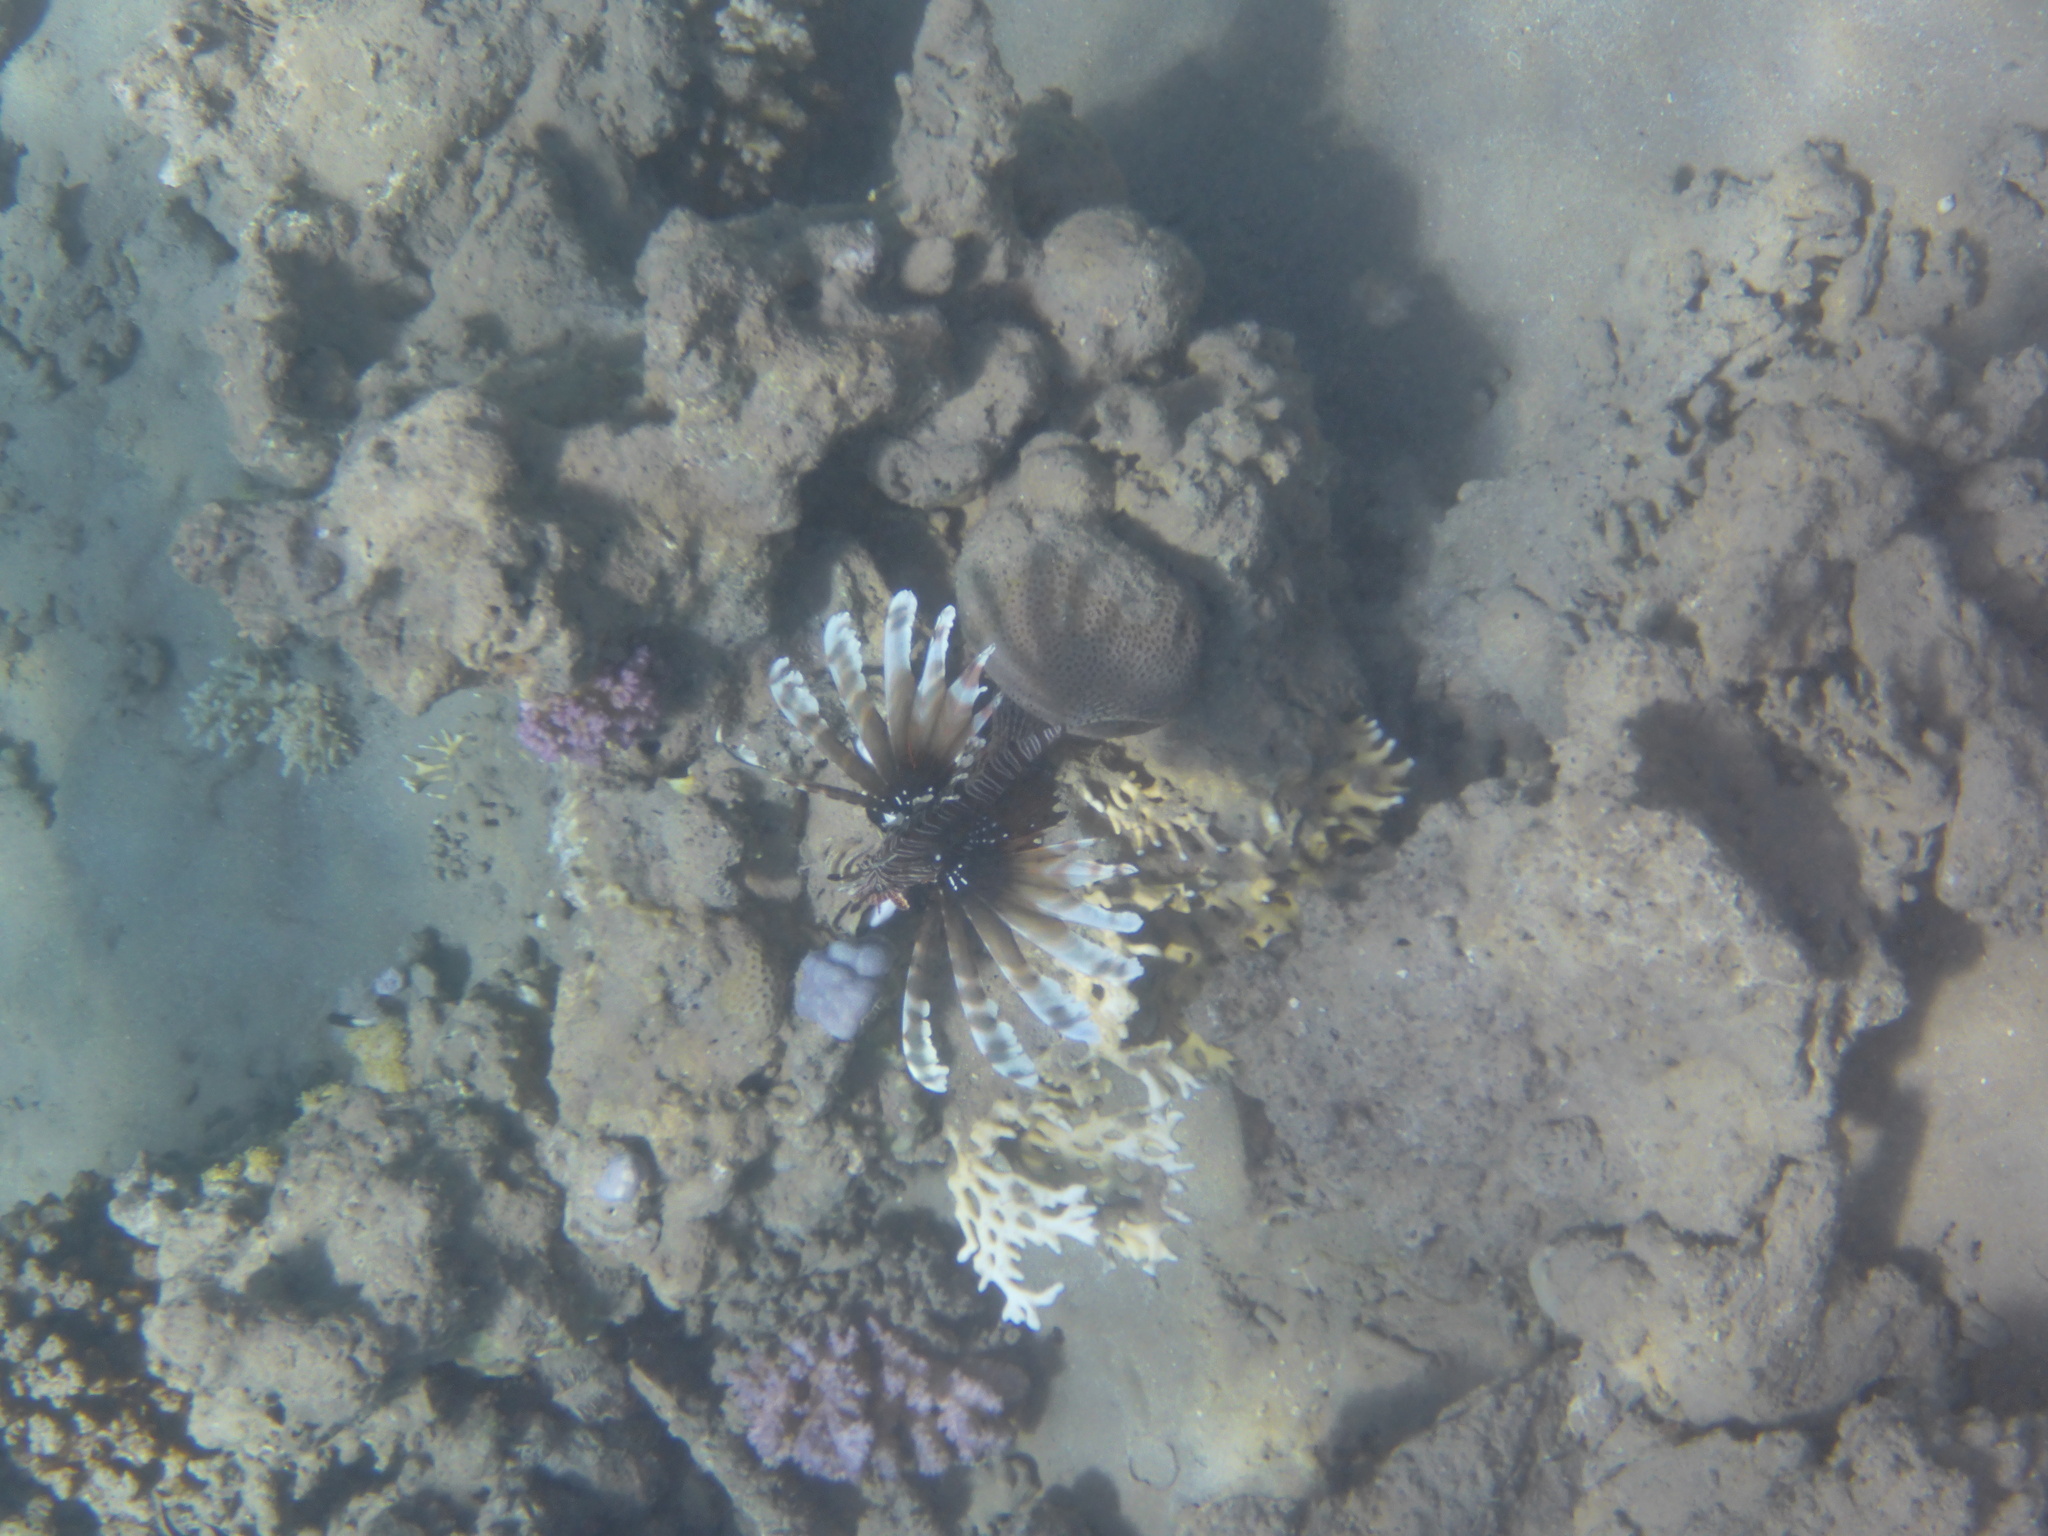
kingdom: Animalia
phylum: Chordata
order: Scorpaeniformes
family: Scorpaenidae
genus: Pterois
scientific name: Pterois miles
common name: Devil firefish
